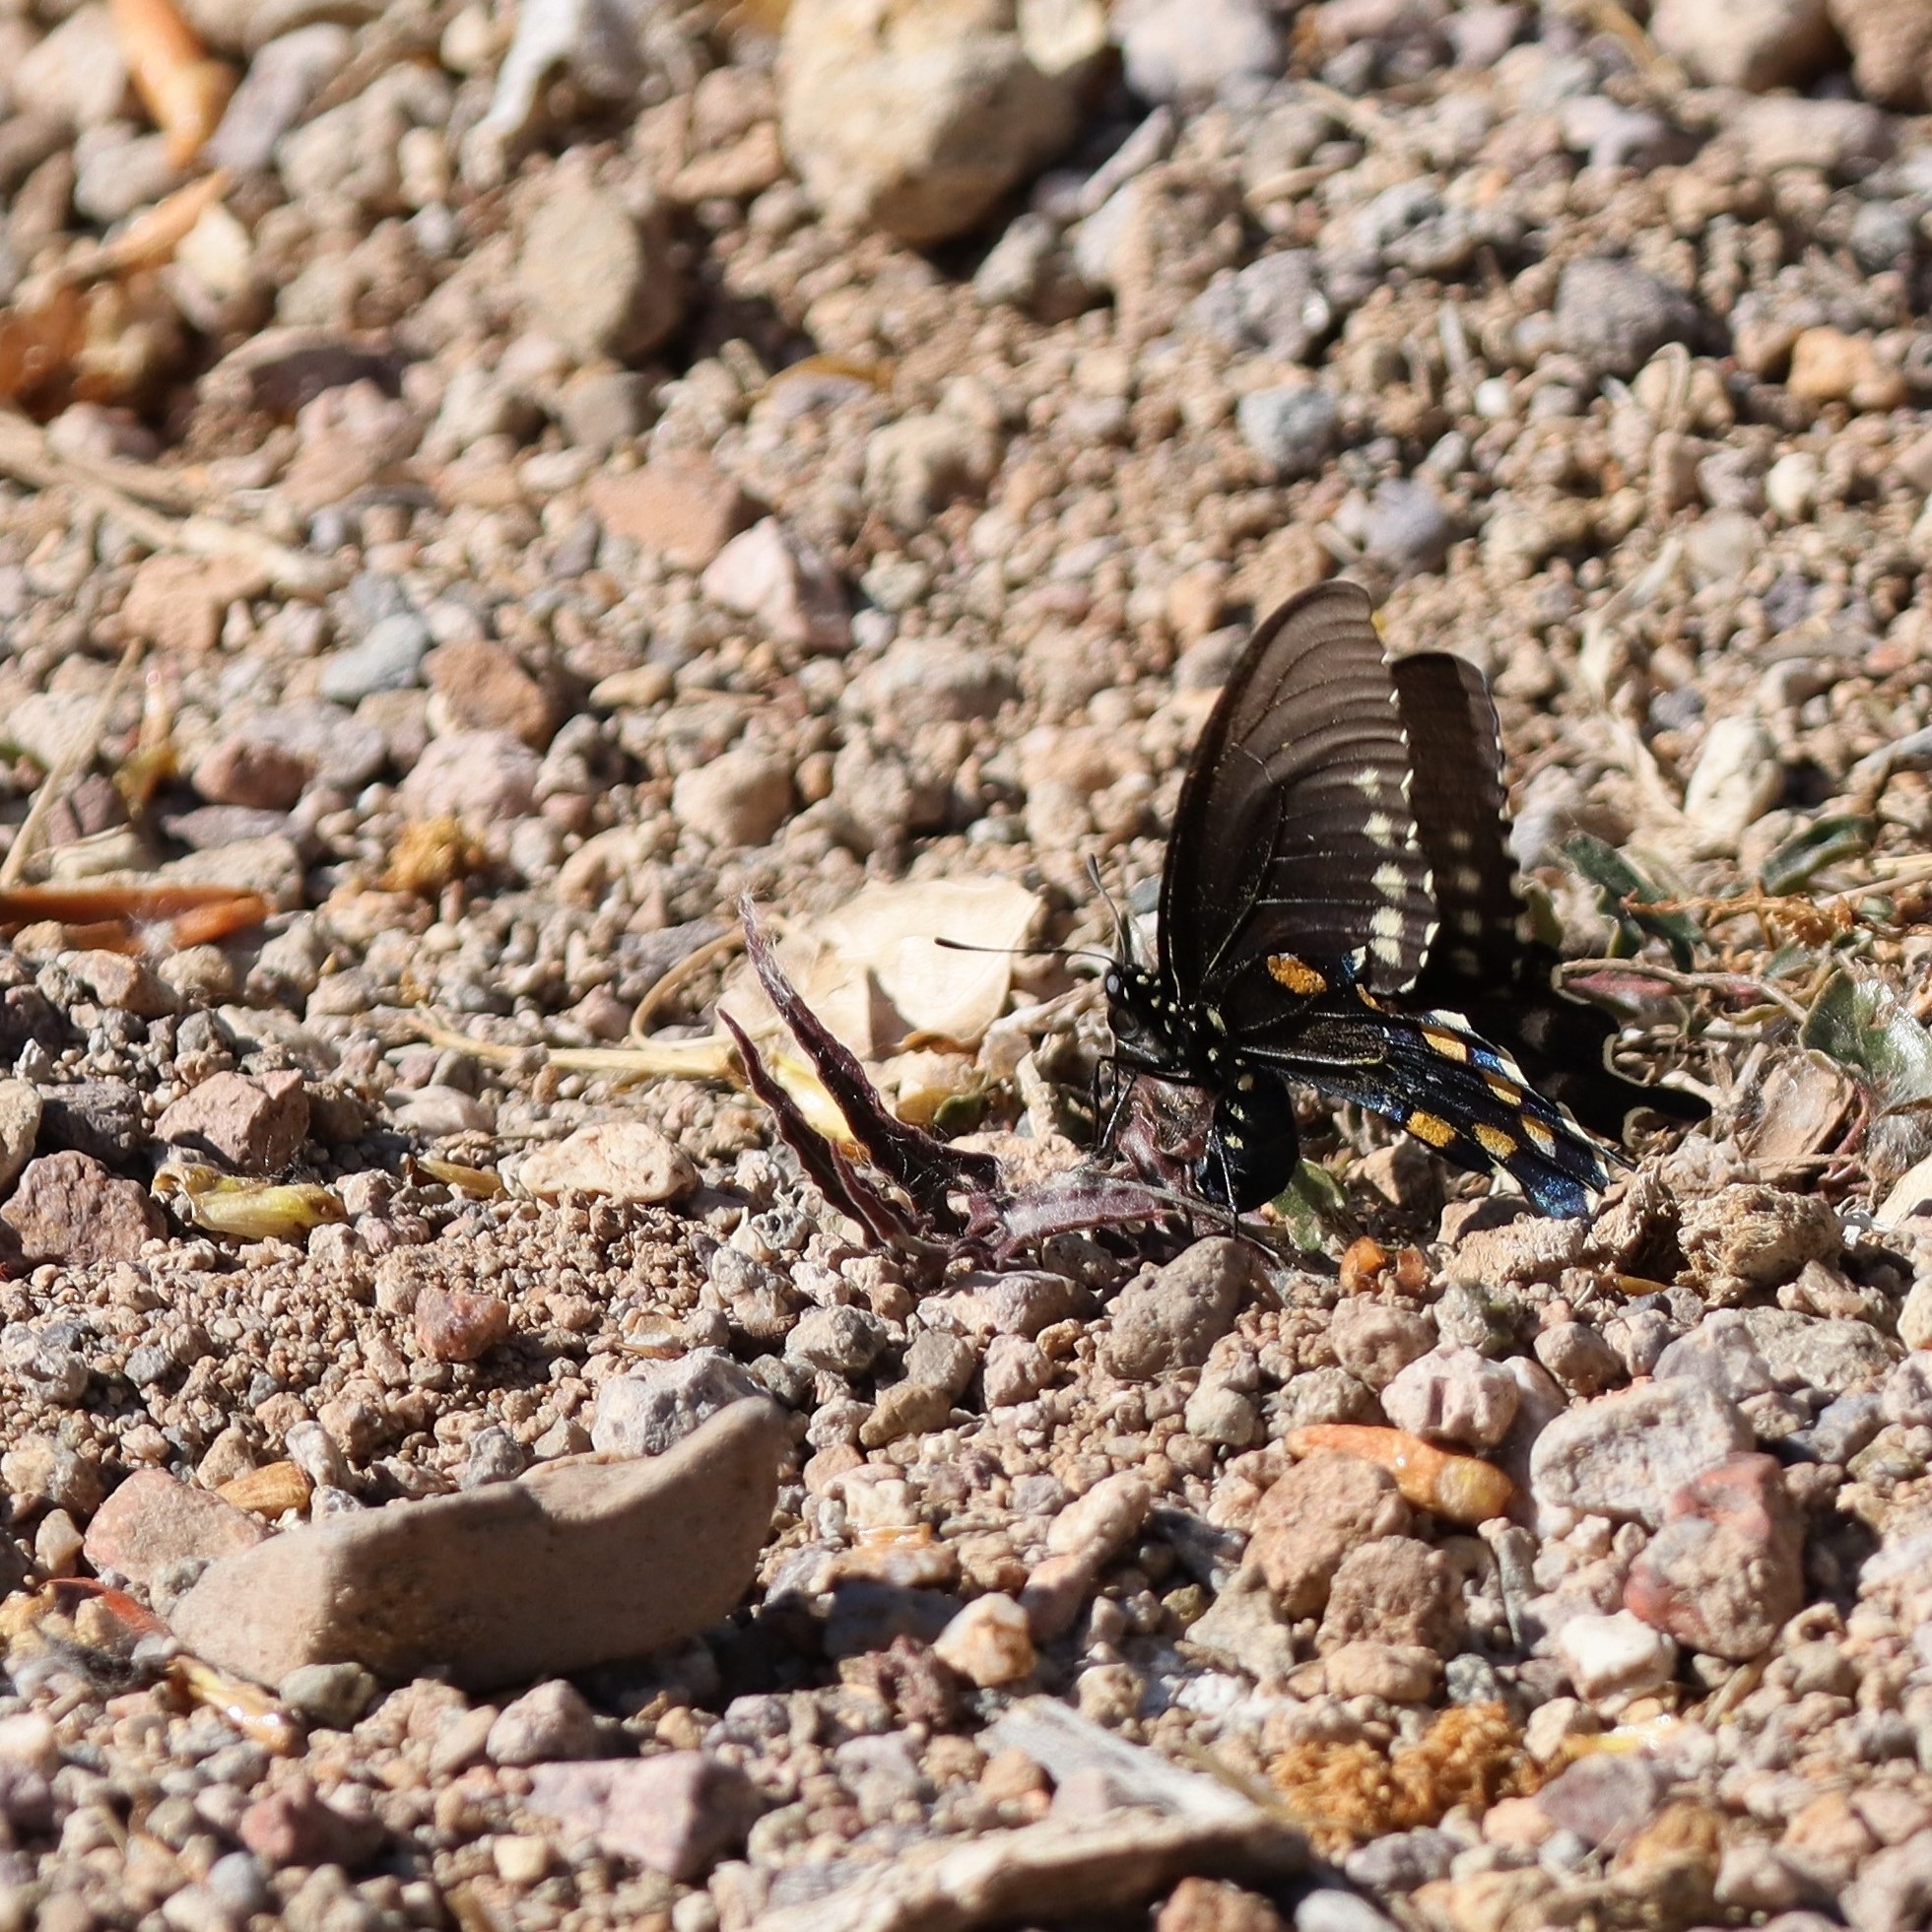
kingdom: Animalia
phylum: Arthropoda
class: Insecta
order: Lepidoptera
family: Papilionidae
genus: Battus
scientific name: Battus philenor
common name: Pipevine swallowtail
